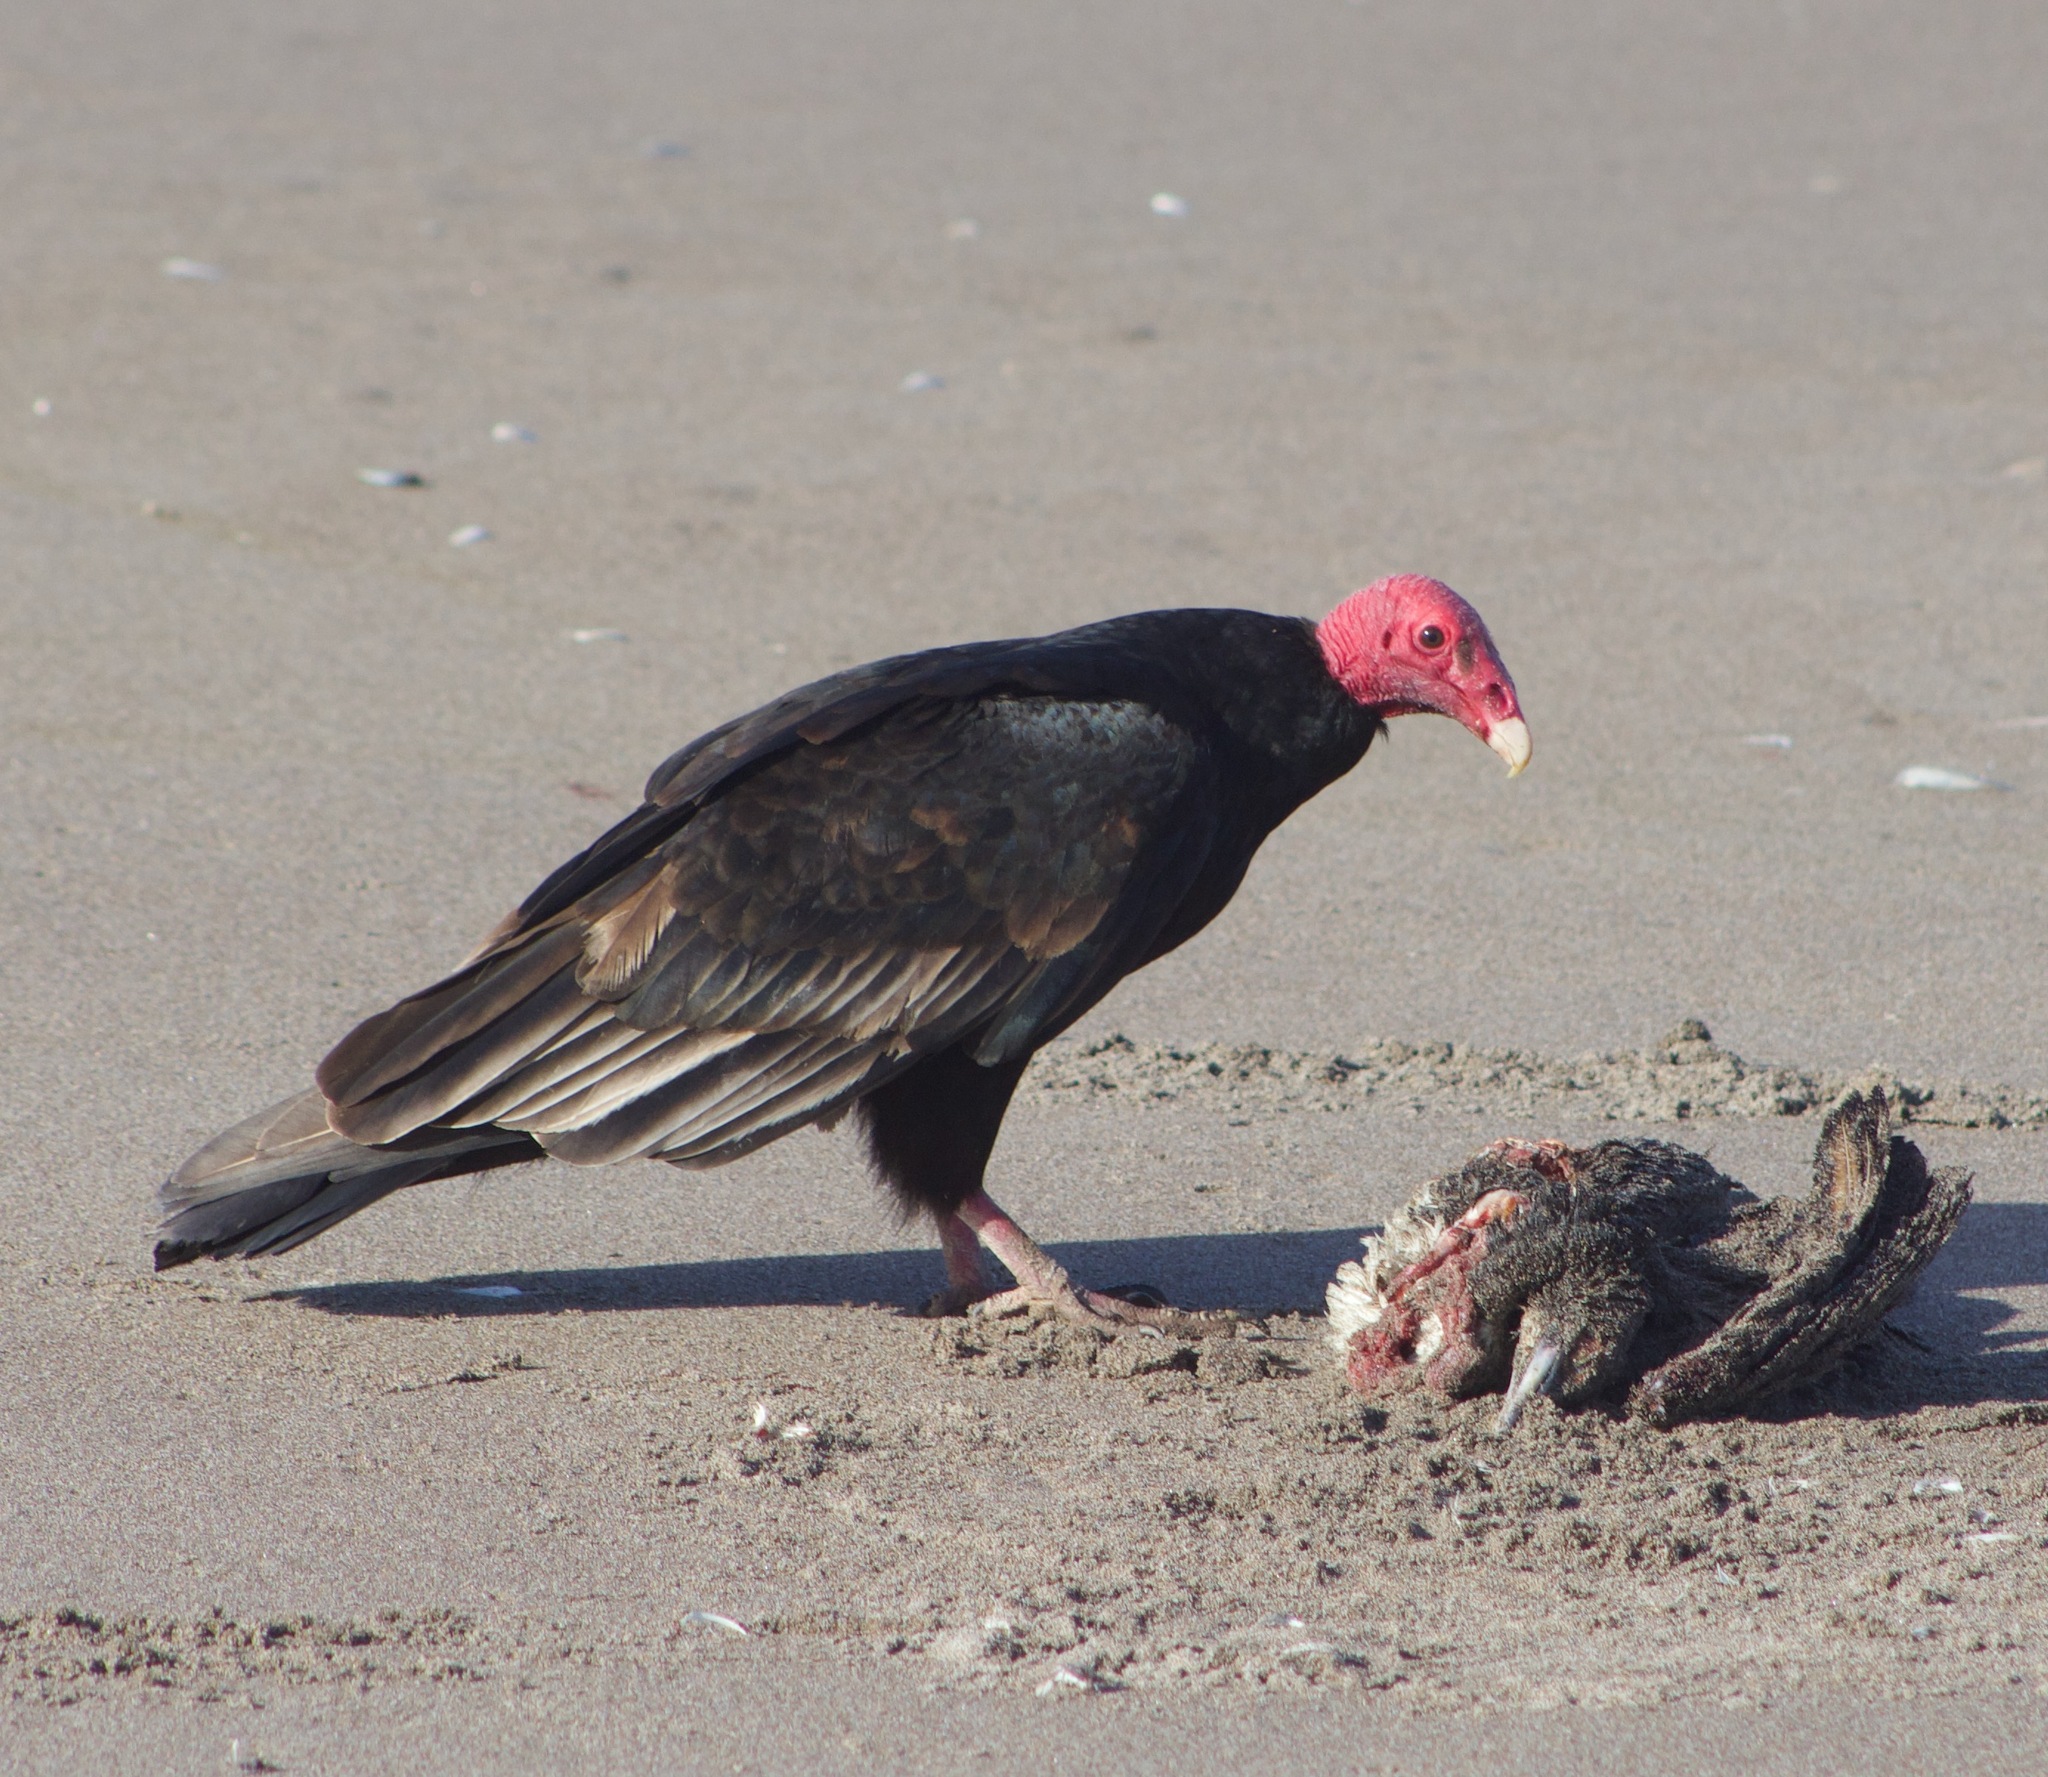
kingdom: Animalia
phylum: Chordata
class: Aves
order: Accipitriformes
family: Cathartidae
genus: Cathartes
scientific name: Cathartes aura
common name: Turkey vulture
